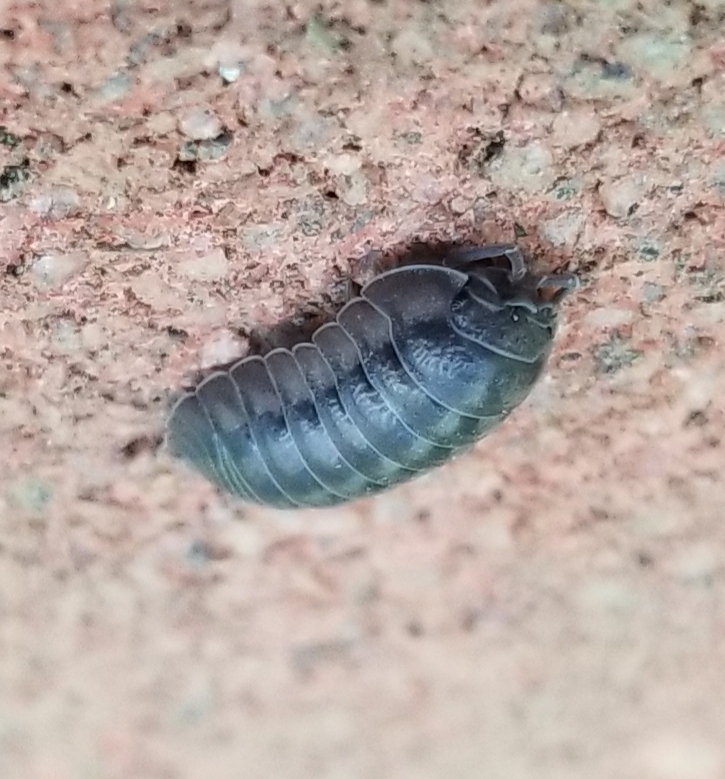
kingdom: Animalia
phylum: Arthropoda
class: Malacostraca
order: Isopoda
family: Armadillidiidae
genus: Armadillidium
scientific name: Armadillidium nasatum
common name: Isopod
